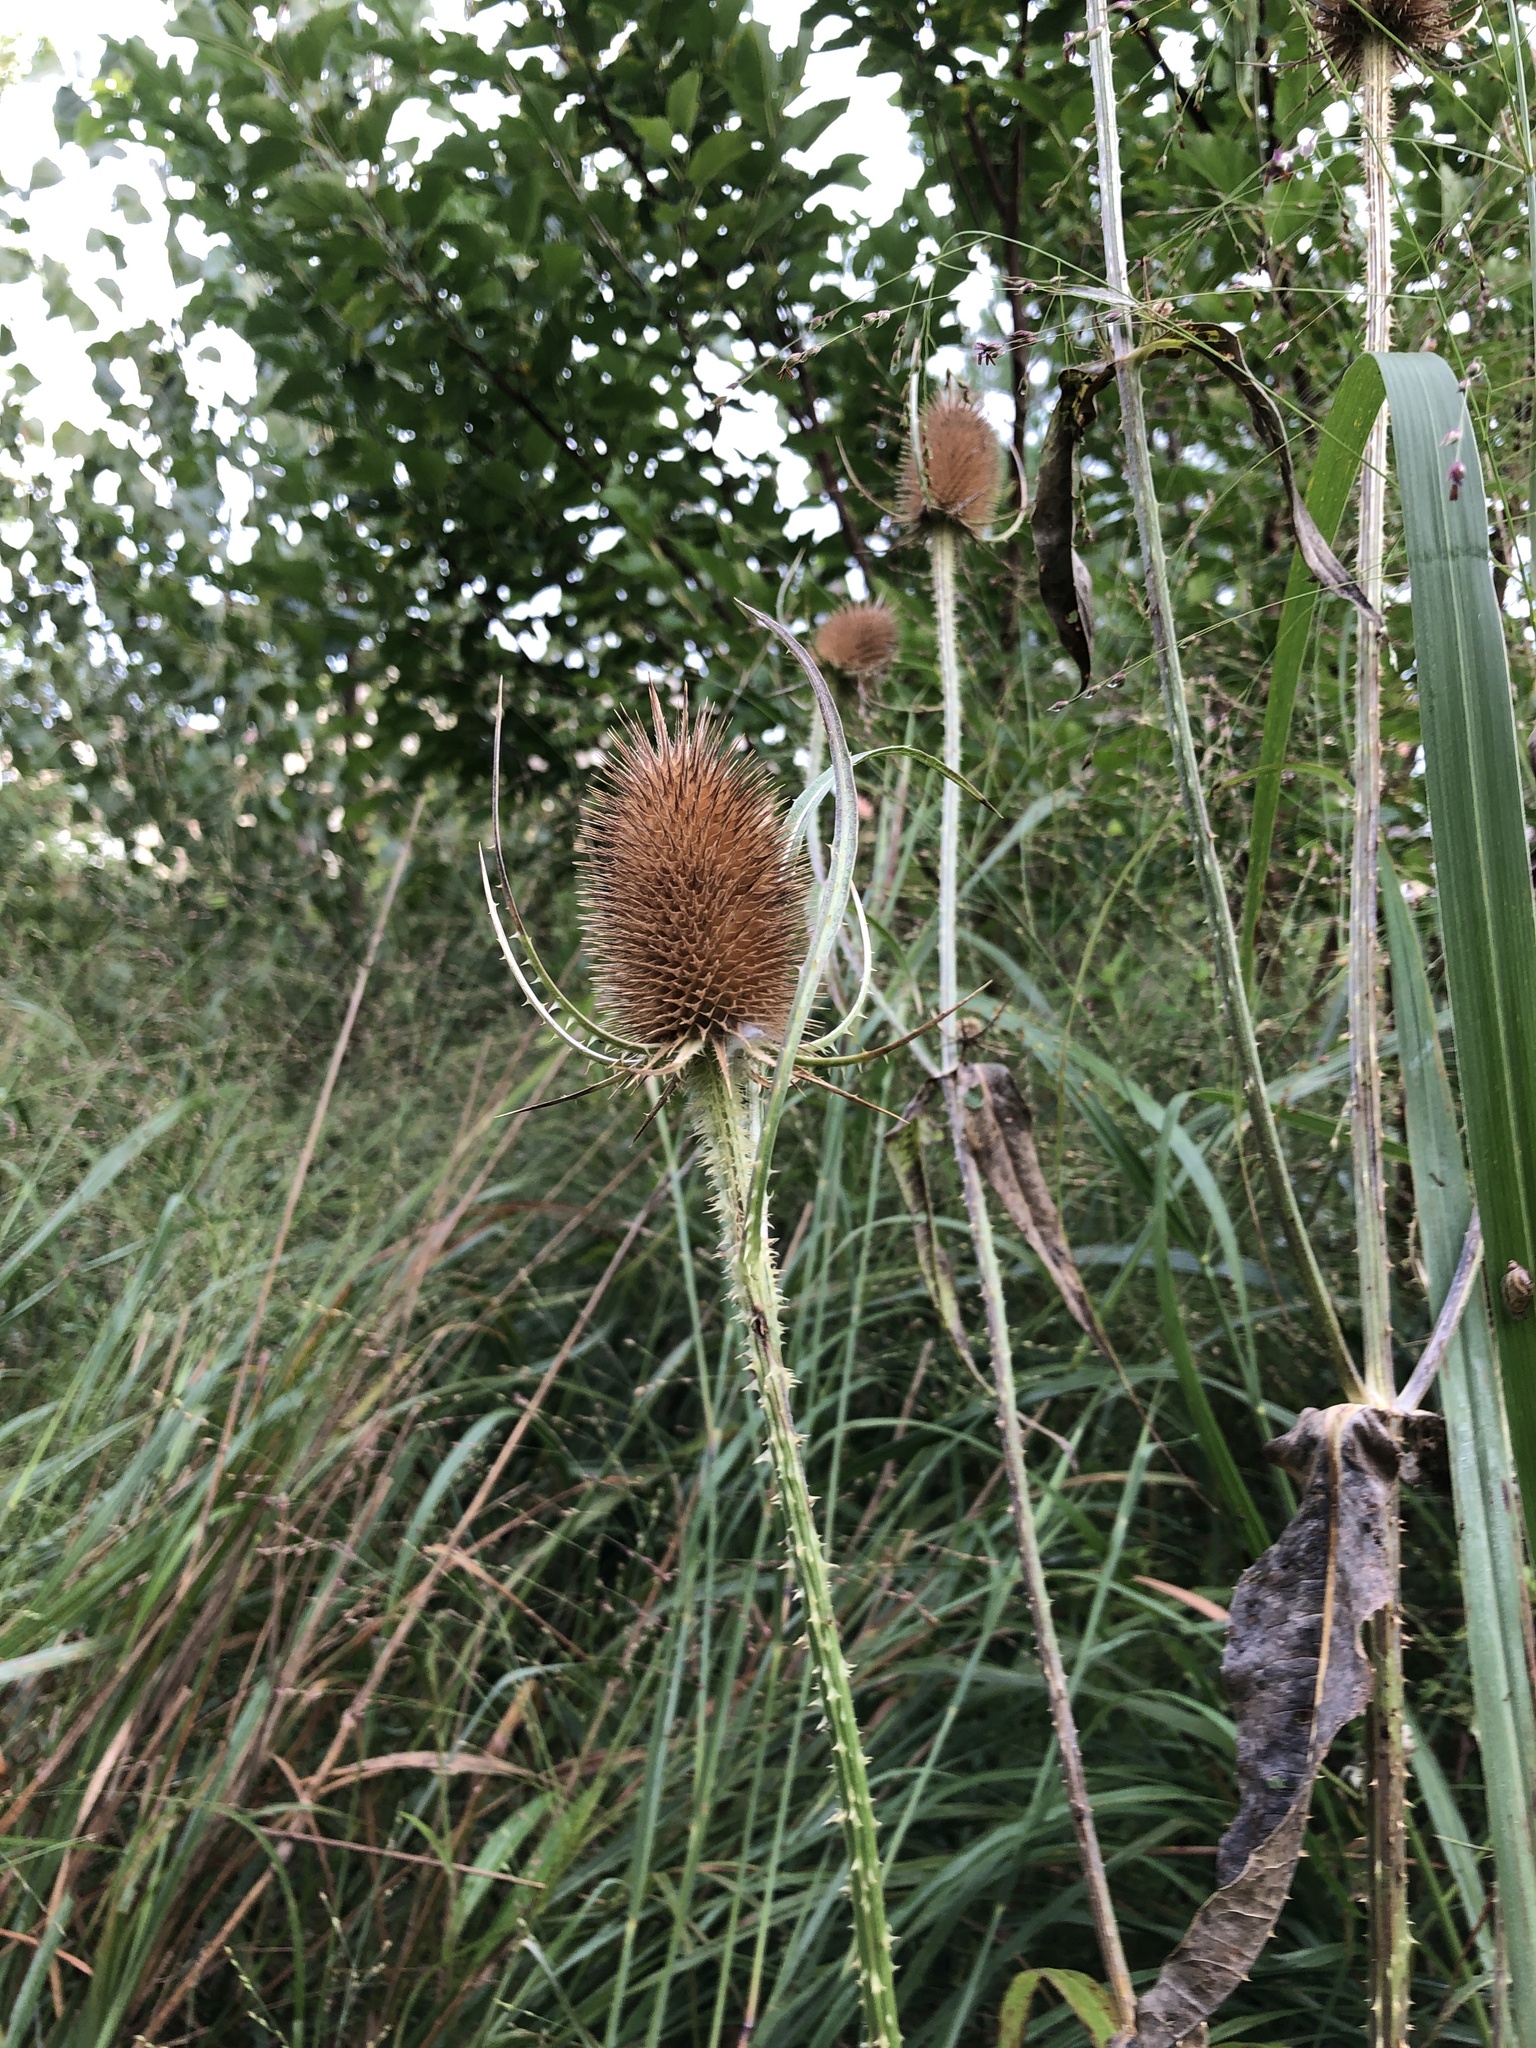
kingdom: Plantae
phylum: Tracheophyta
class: Magnoliopsida
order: Dipsacales
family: Caprifoliaceae
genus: Dipsacus
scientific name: Dipsacus fullonum
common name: Teasel
